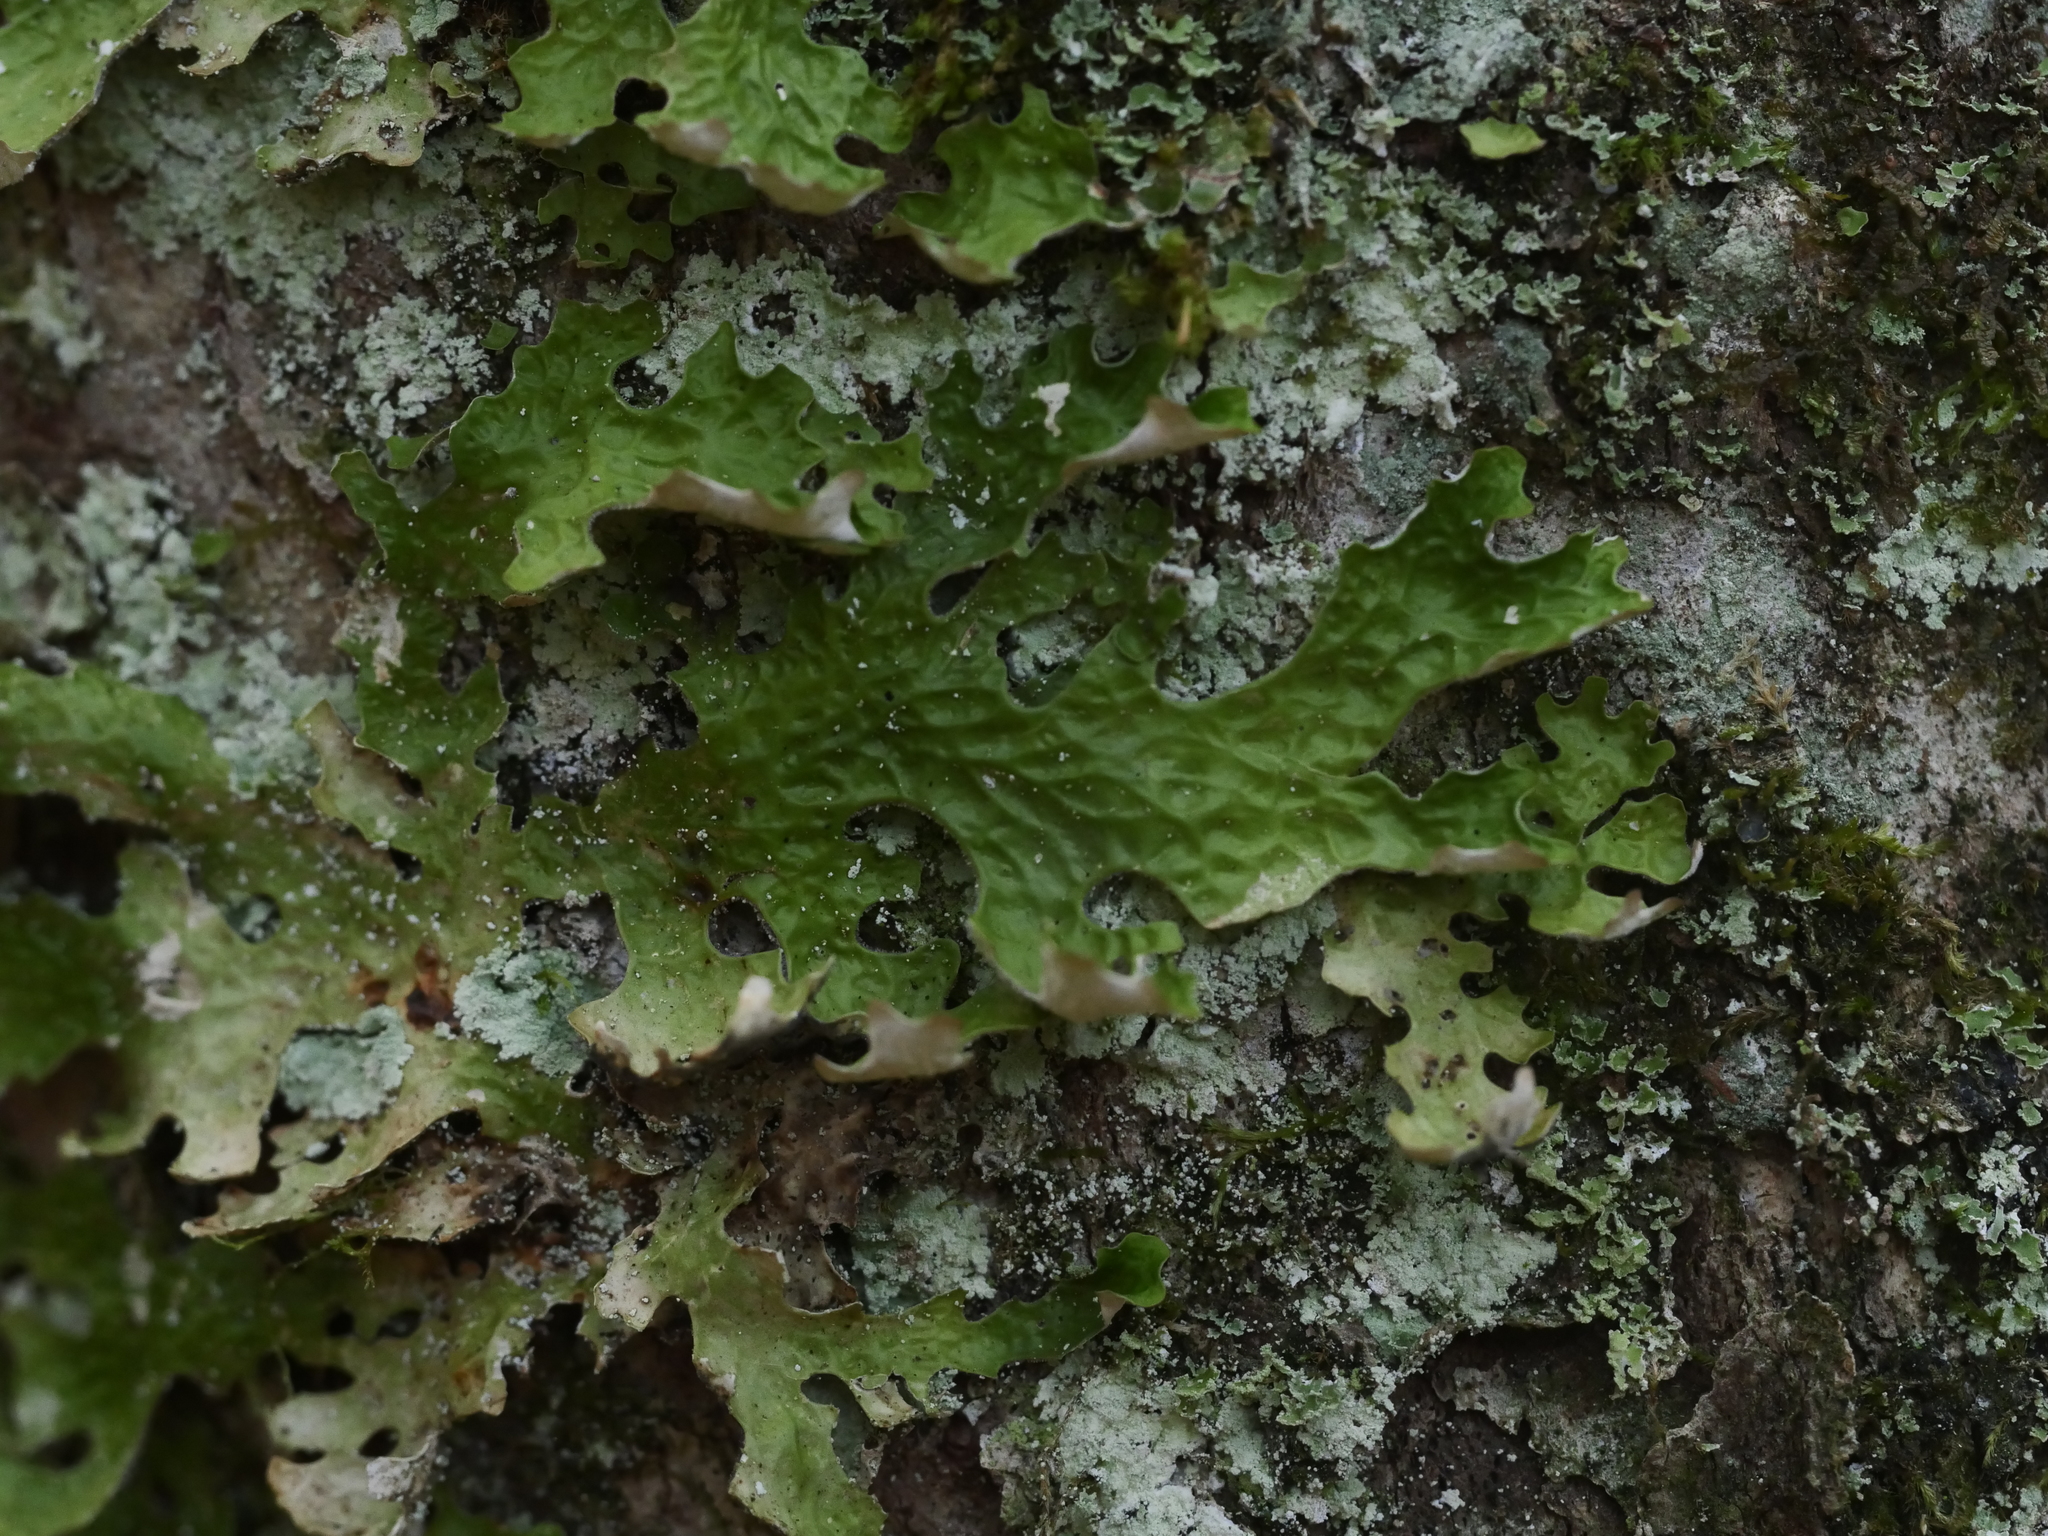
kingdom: Fungi
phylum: Ascomycota
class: Lecanoromycetes
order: Peltigerales
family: Lobariaceae
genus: Lobaria
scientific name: Lobaria pulmonaria
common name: Lungwort
